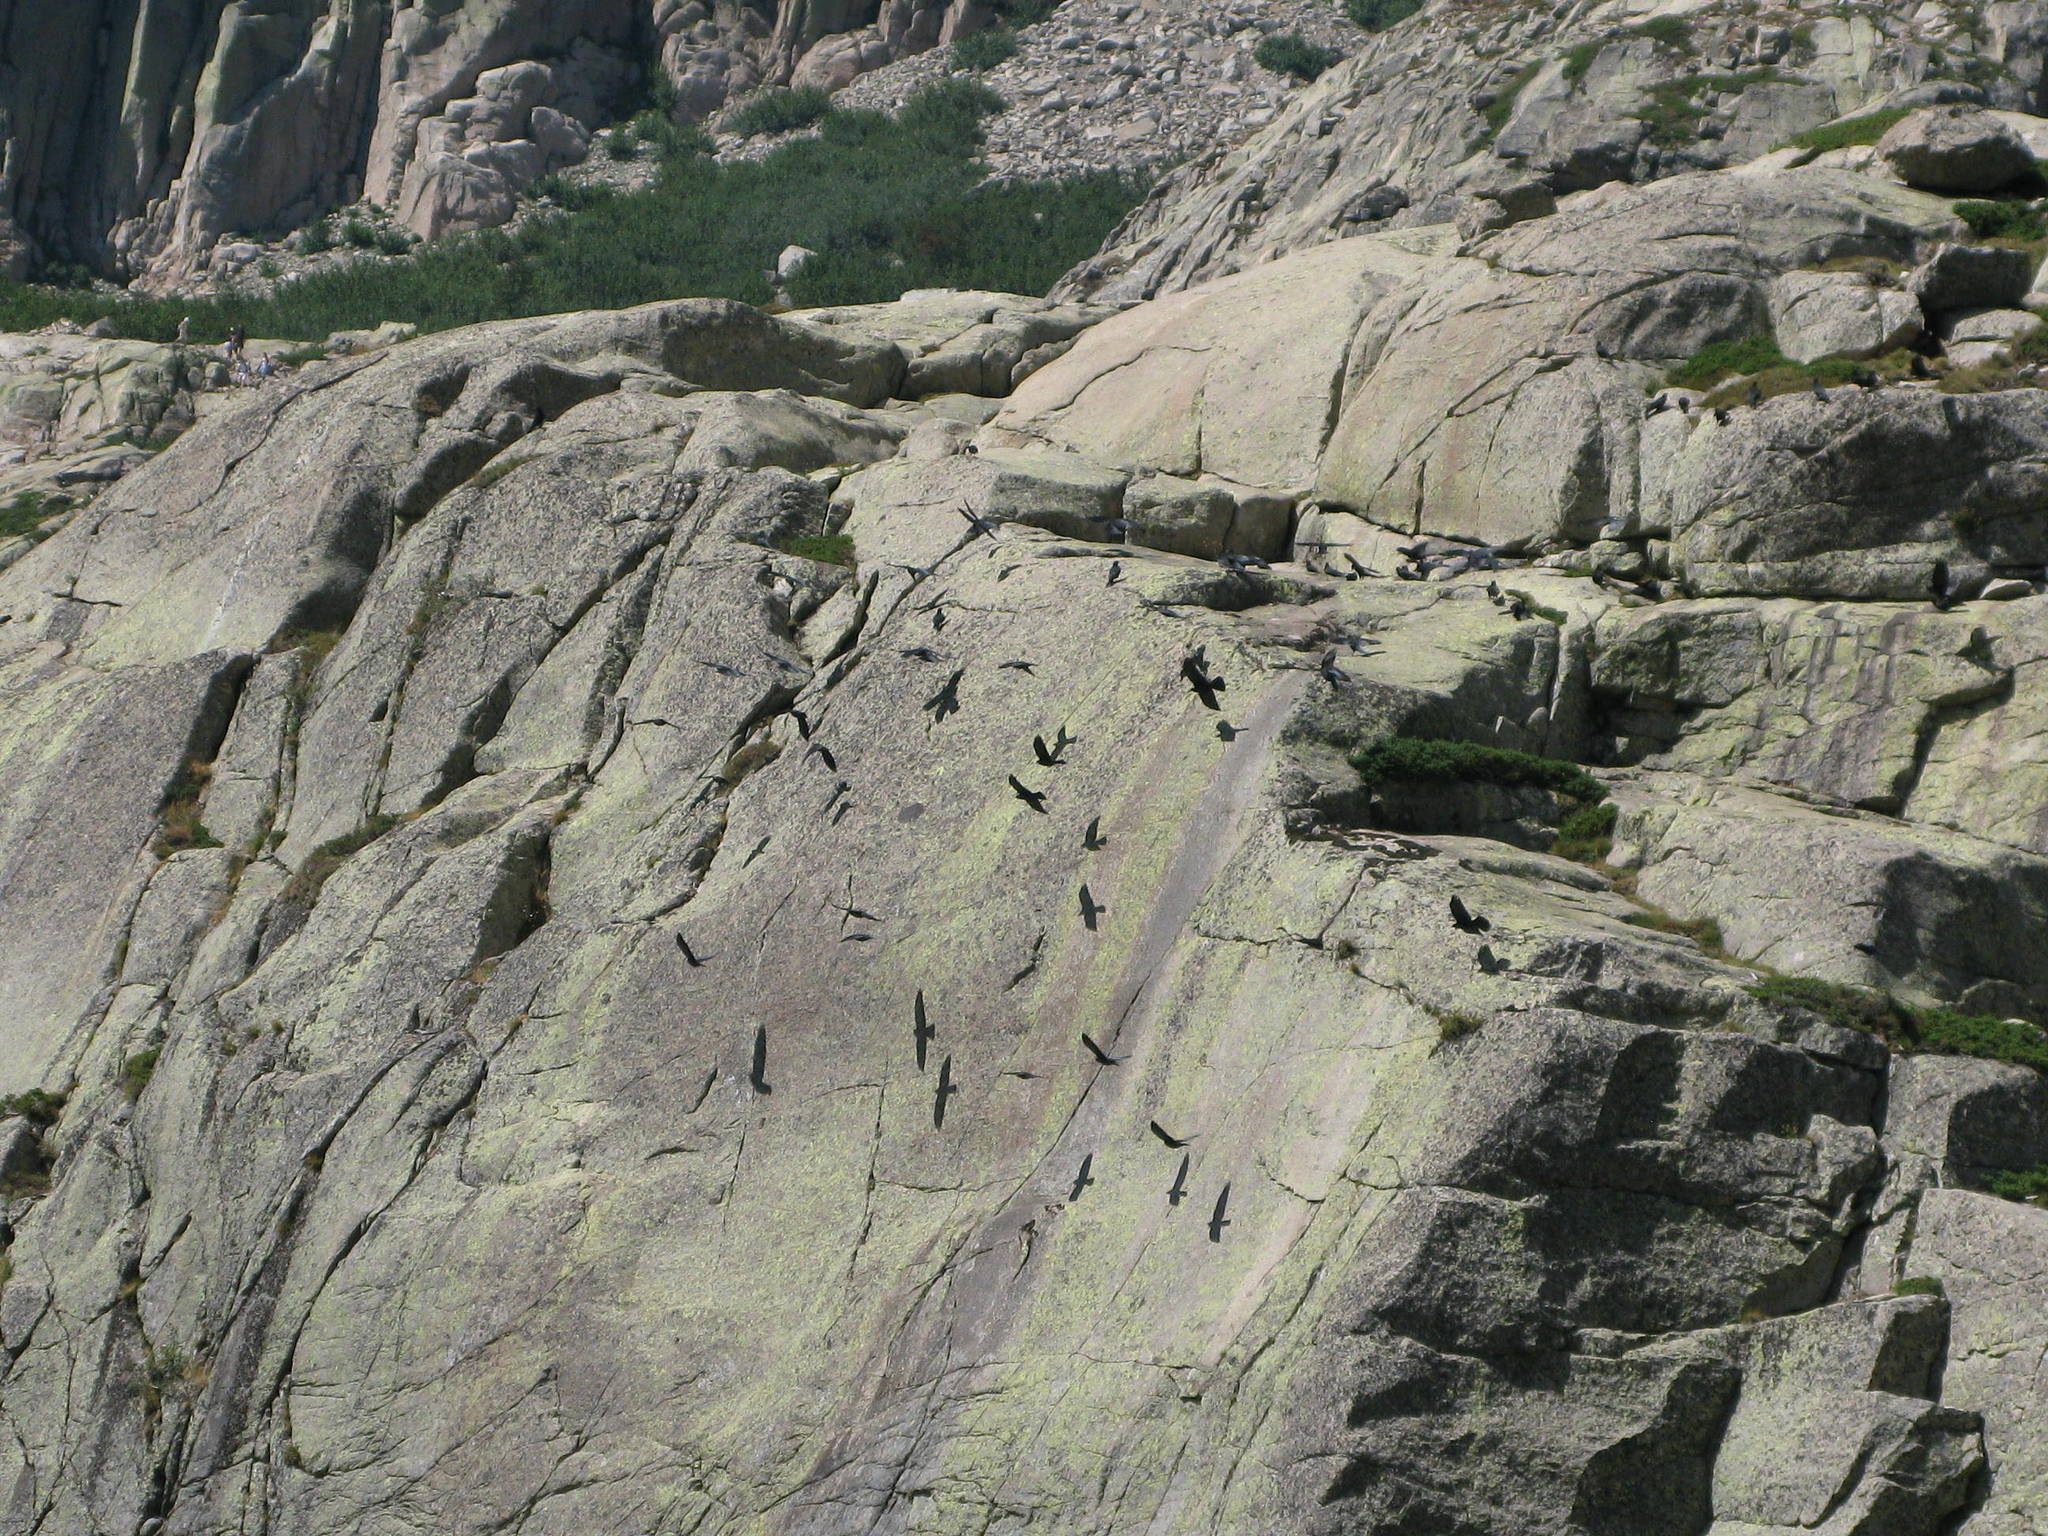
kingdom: Animalia
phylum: Chordata
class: Aves
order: Passeriformes
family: Corvidae
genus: Pyrrhocorax
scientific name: Pyrrhocorax graculus
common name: Alpine chough
